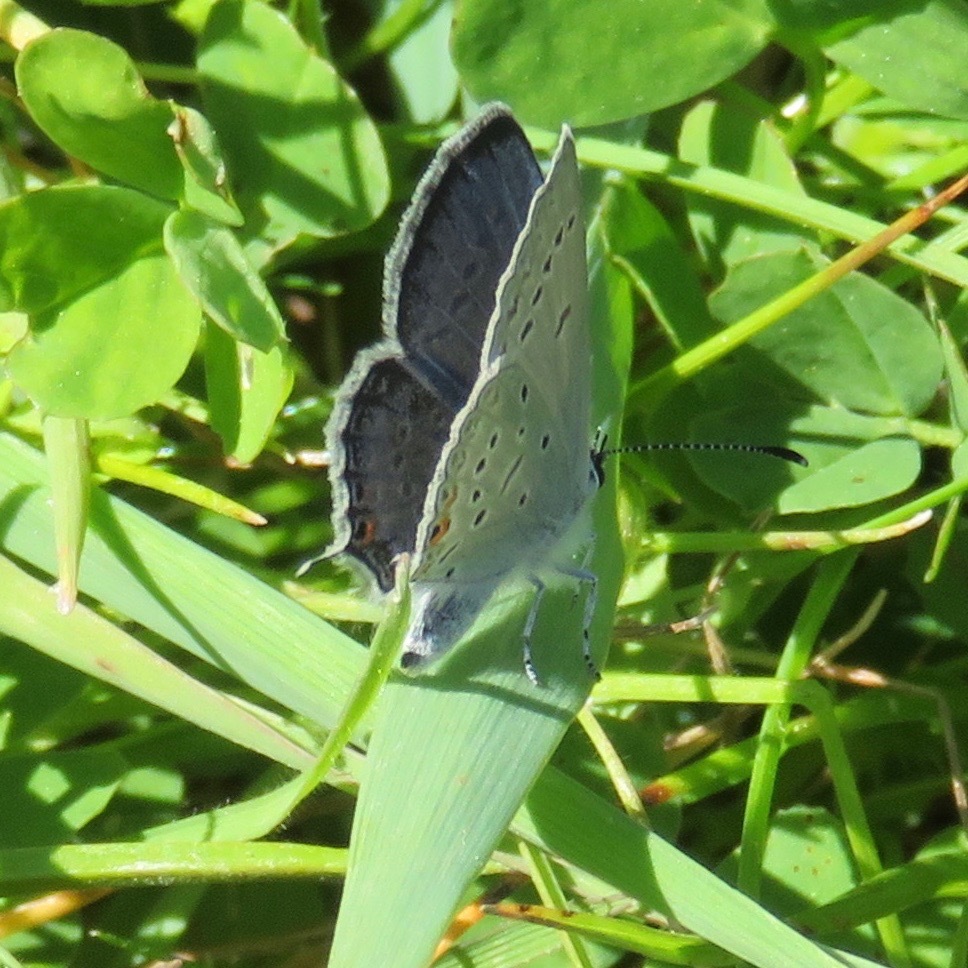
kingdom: Animalia
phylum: Arthropoda
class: Insecta
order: Lepidoptera
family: Lycaenidae
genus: Elkalyce
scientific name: Elkalyce comyntas
